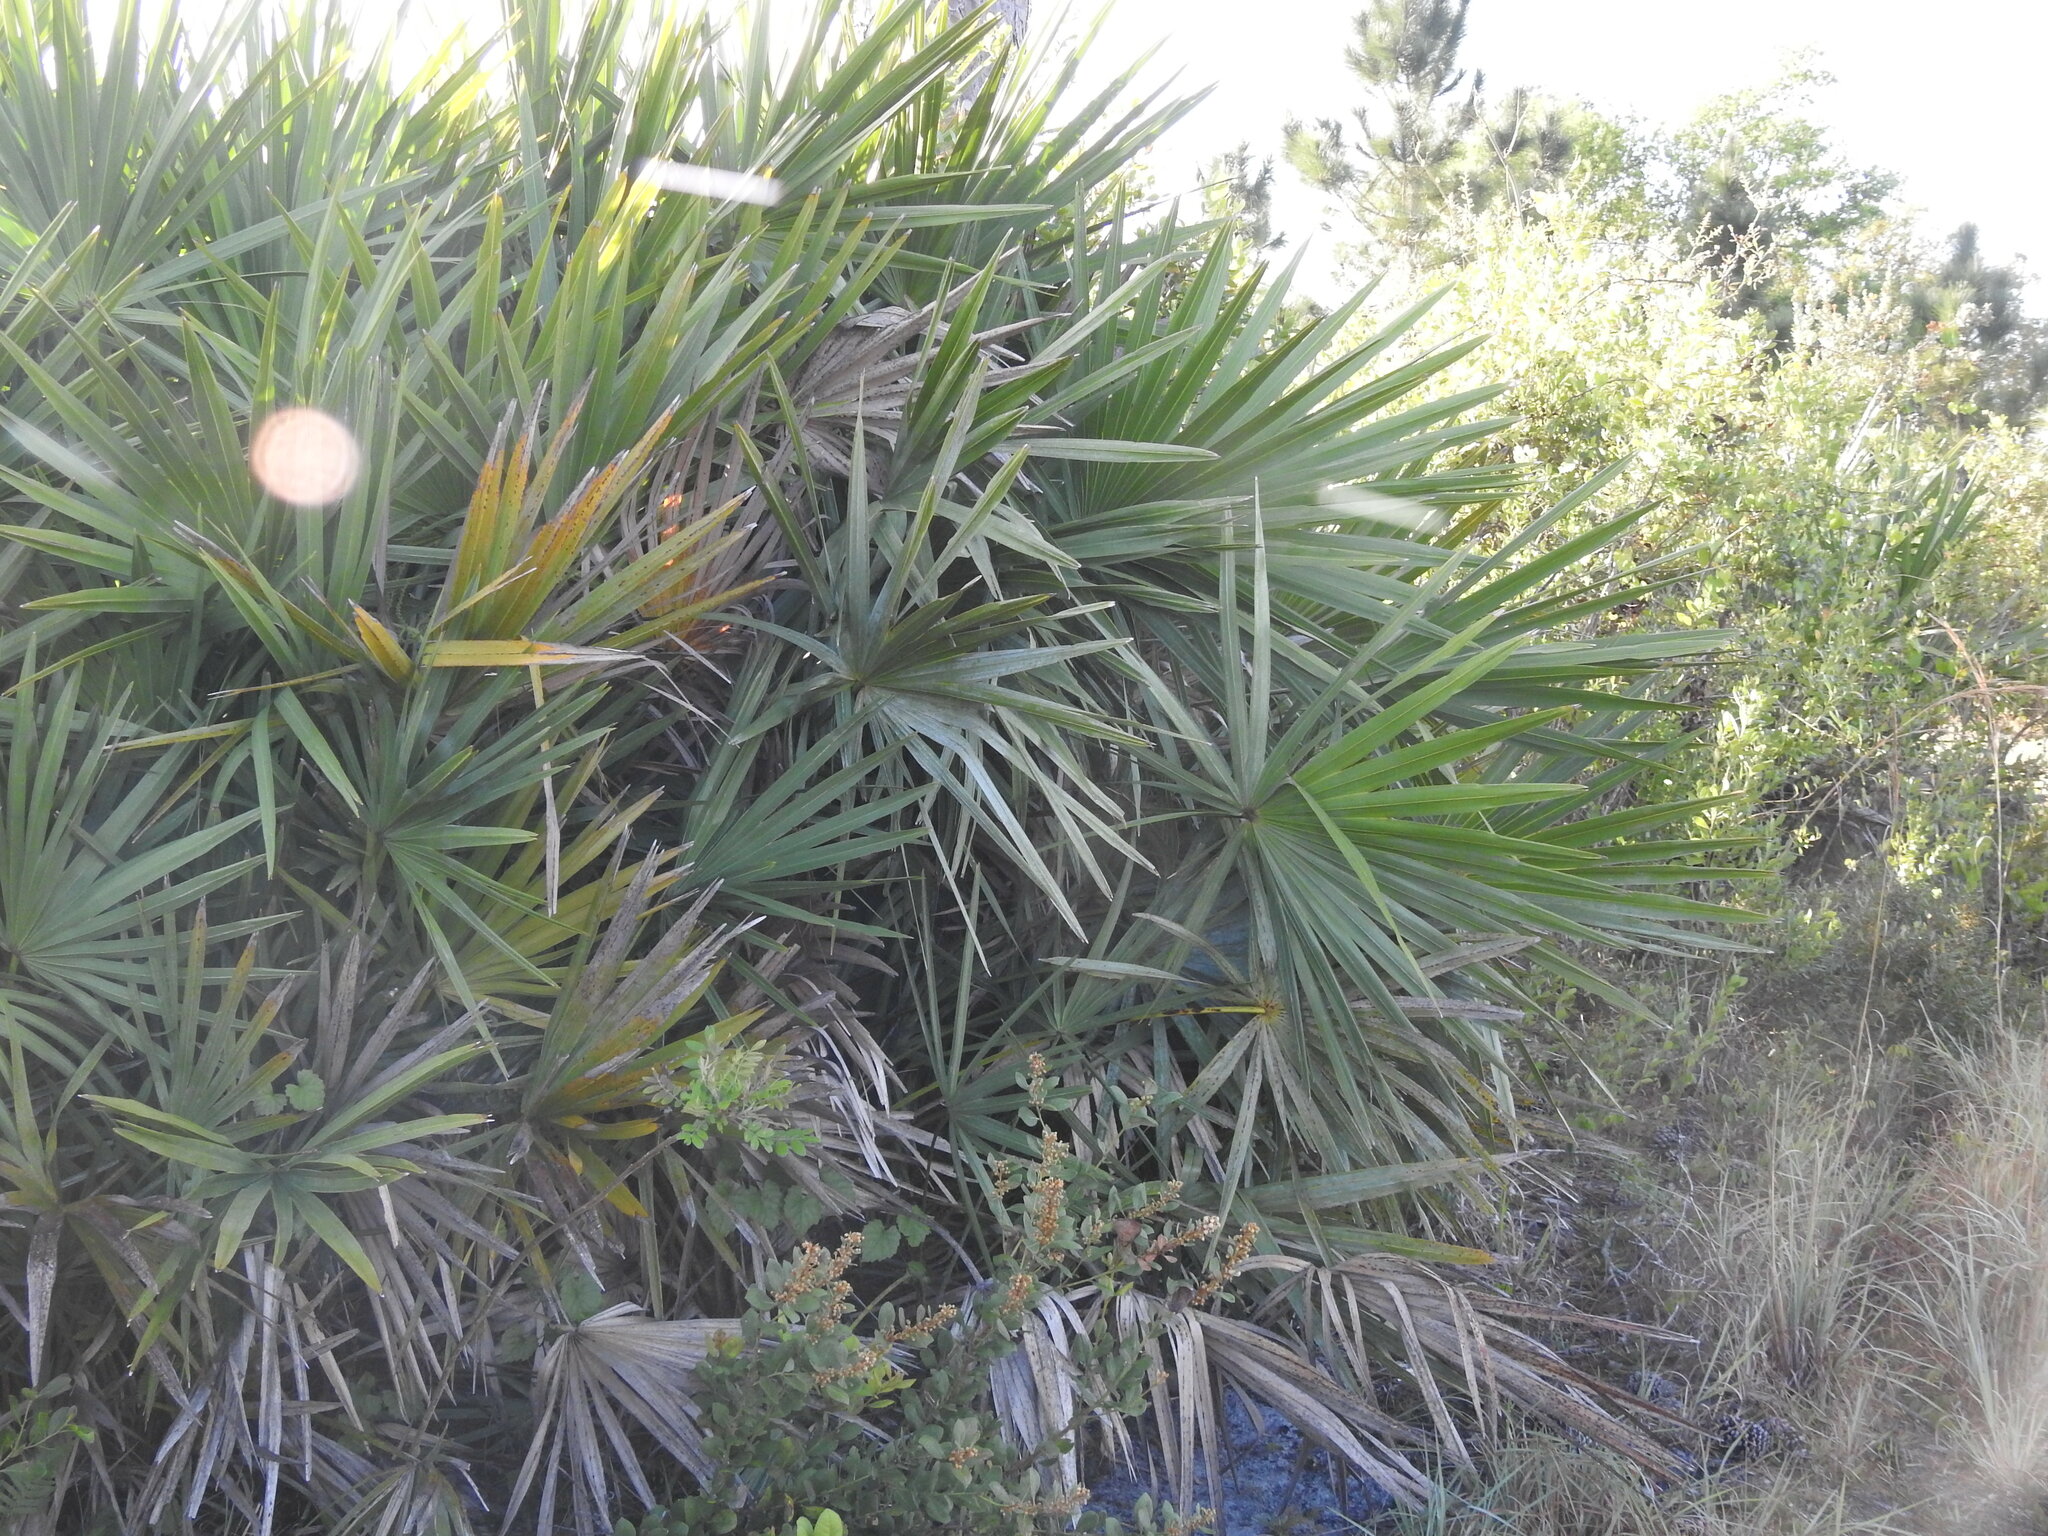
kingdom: Plantae
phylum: Tracheophyta
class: Liliopsida
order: Arecales
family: Arecaceae
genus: Serenoa
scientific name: Serenoa repens
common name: Saw-palmetto
